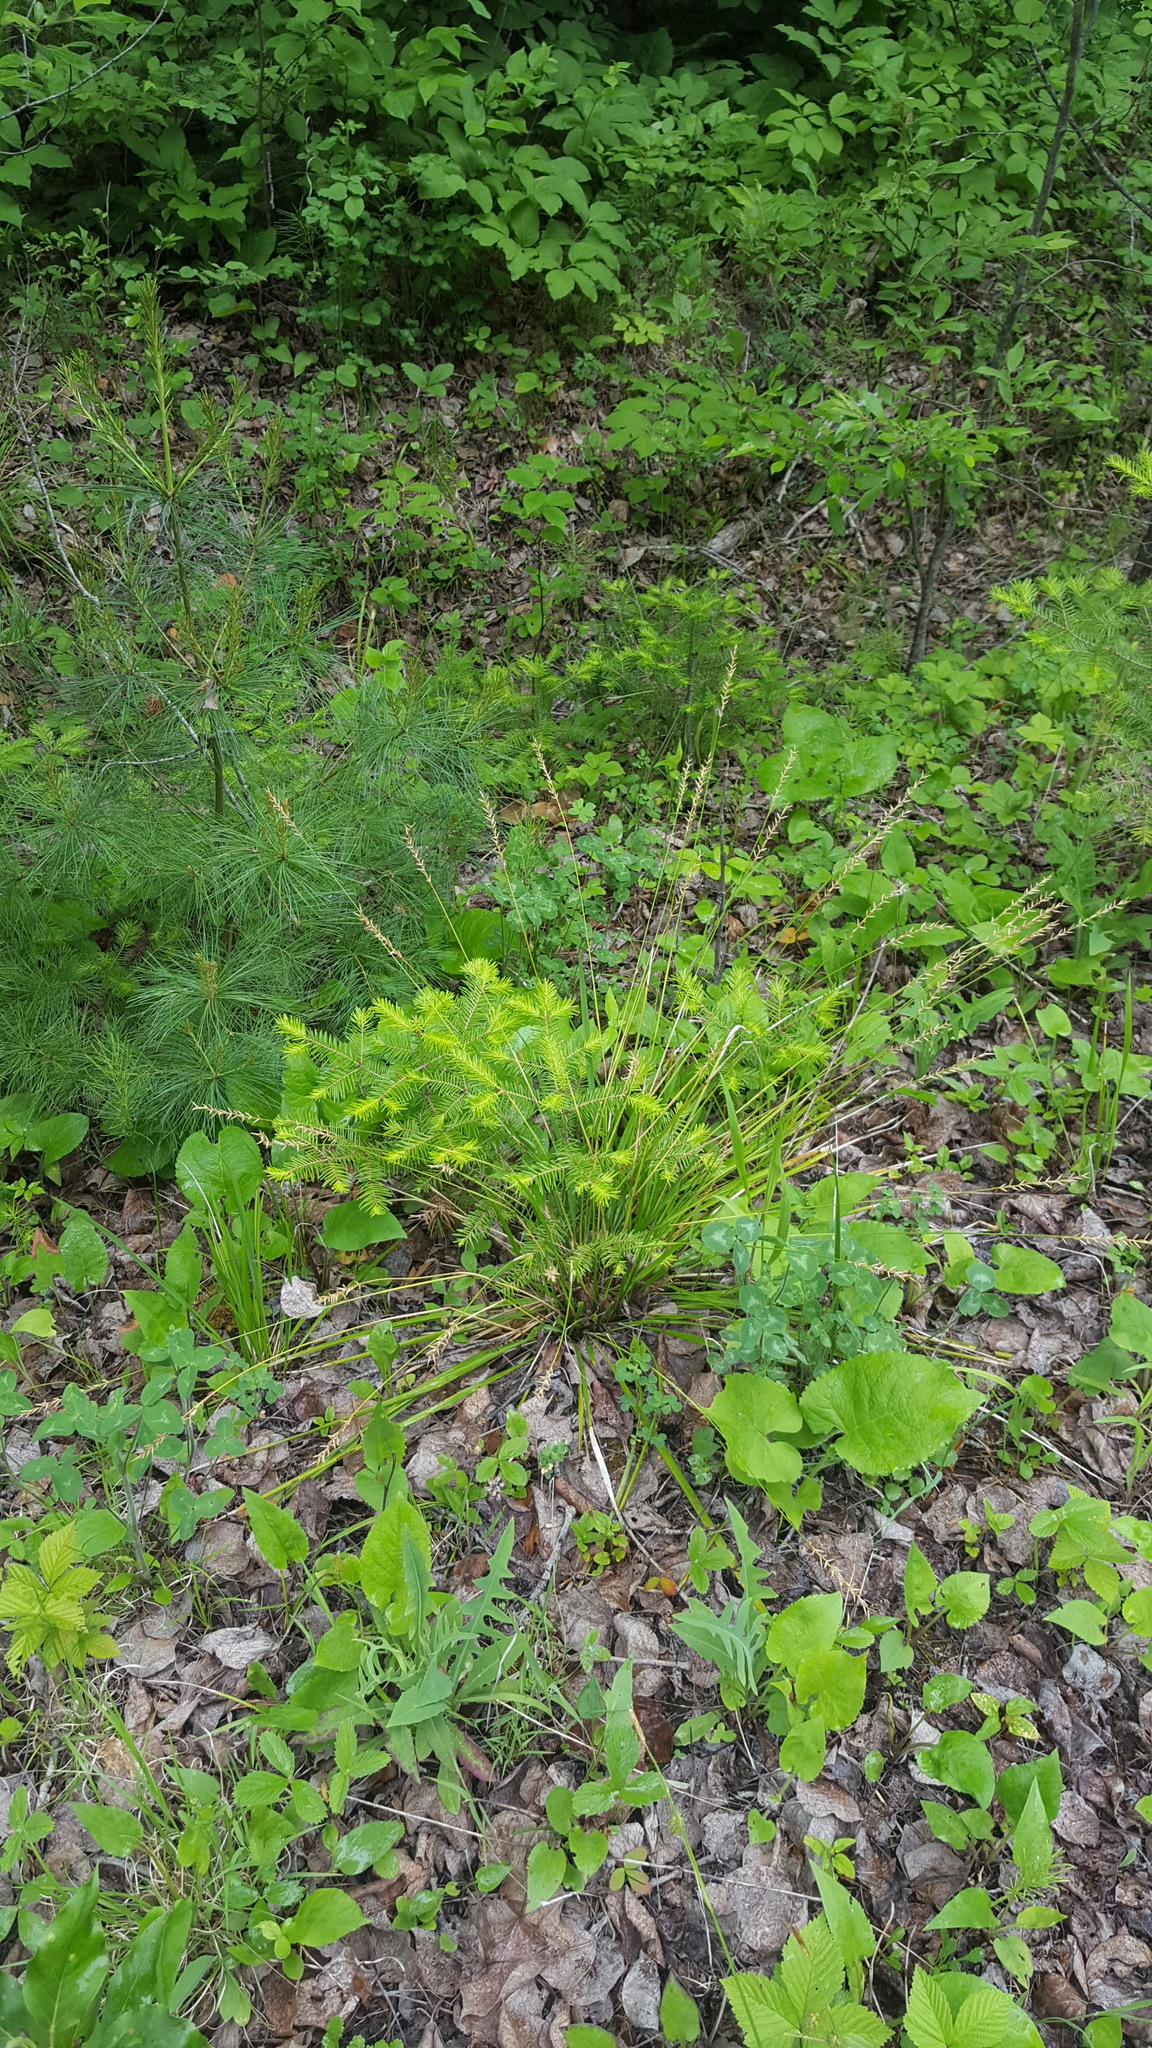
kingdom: Plantae
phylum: Tracheophyta
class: Liliopsida
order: Poales
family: Poaceae
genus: Oryzopsis
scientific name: Oryzopsis asperifolia
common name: Rough-leaved mountain rice
